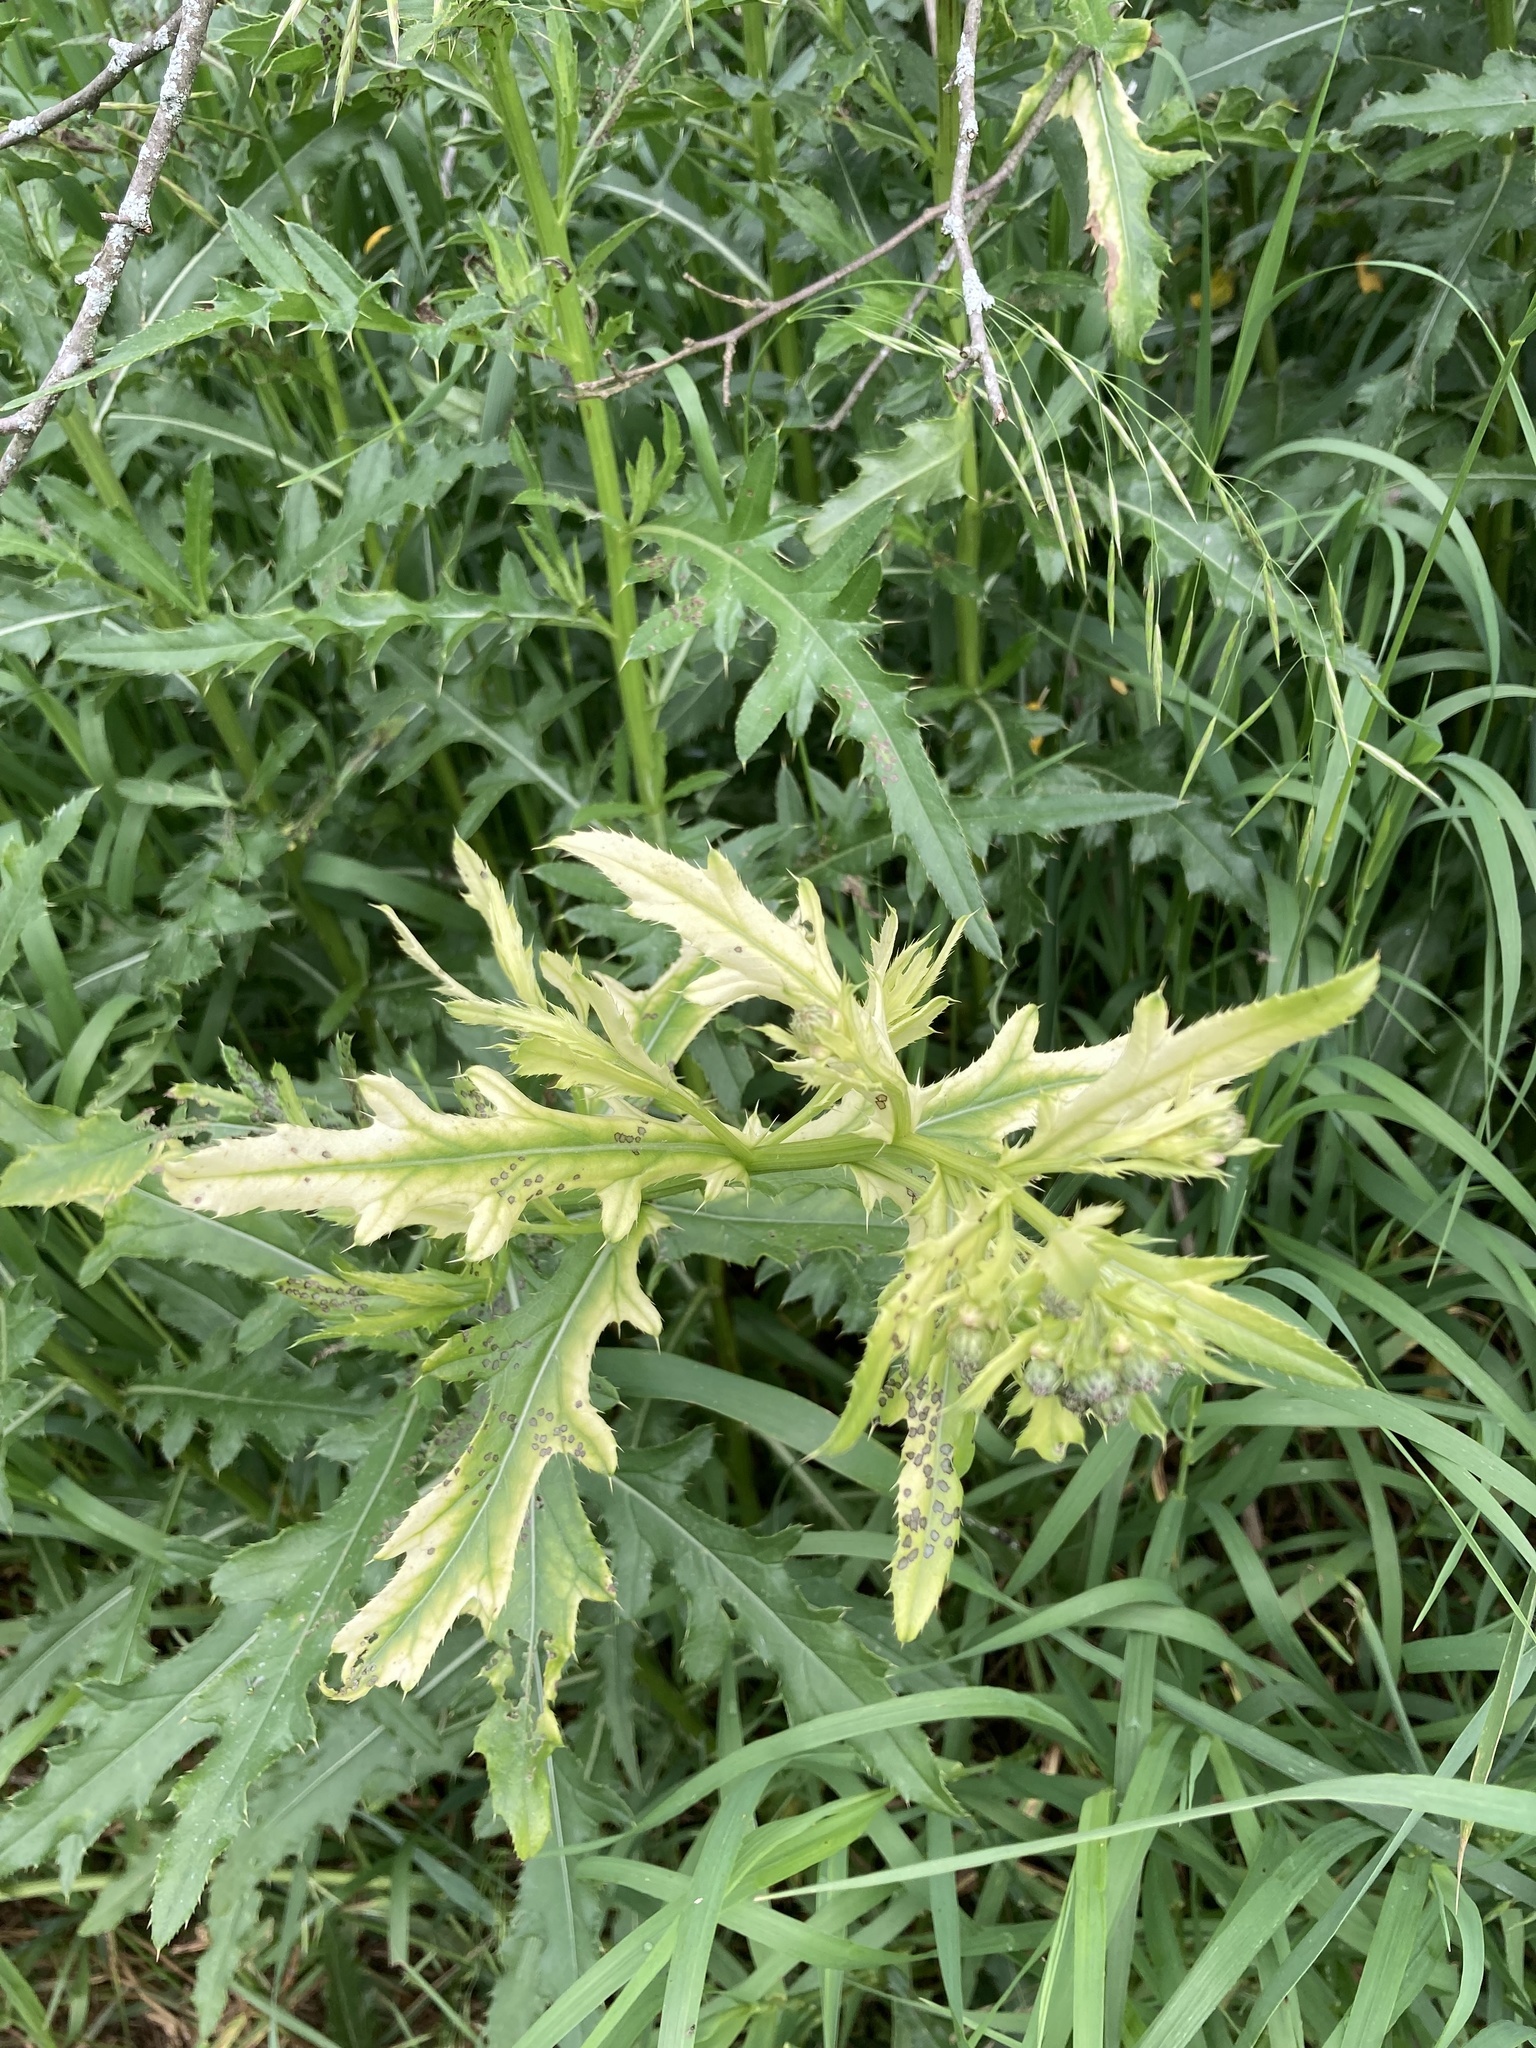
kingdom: Bacteria
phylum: Proteobacteria
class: Gammaproteobacteria
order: Pseudomonadales
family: Pseudomonadaceae
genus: Pseudomonas
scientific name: Pseudomonas syringae
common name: Bacterial speck
